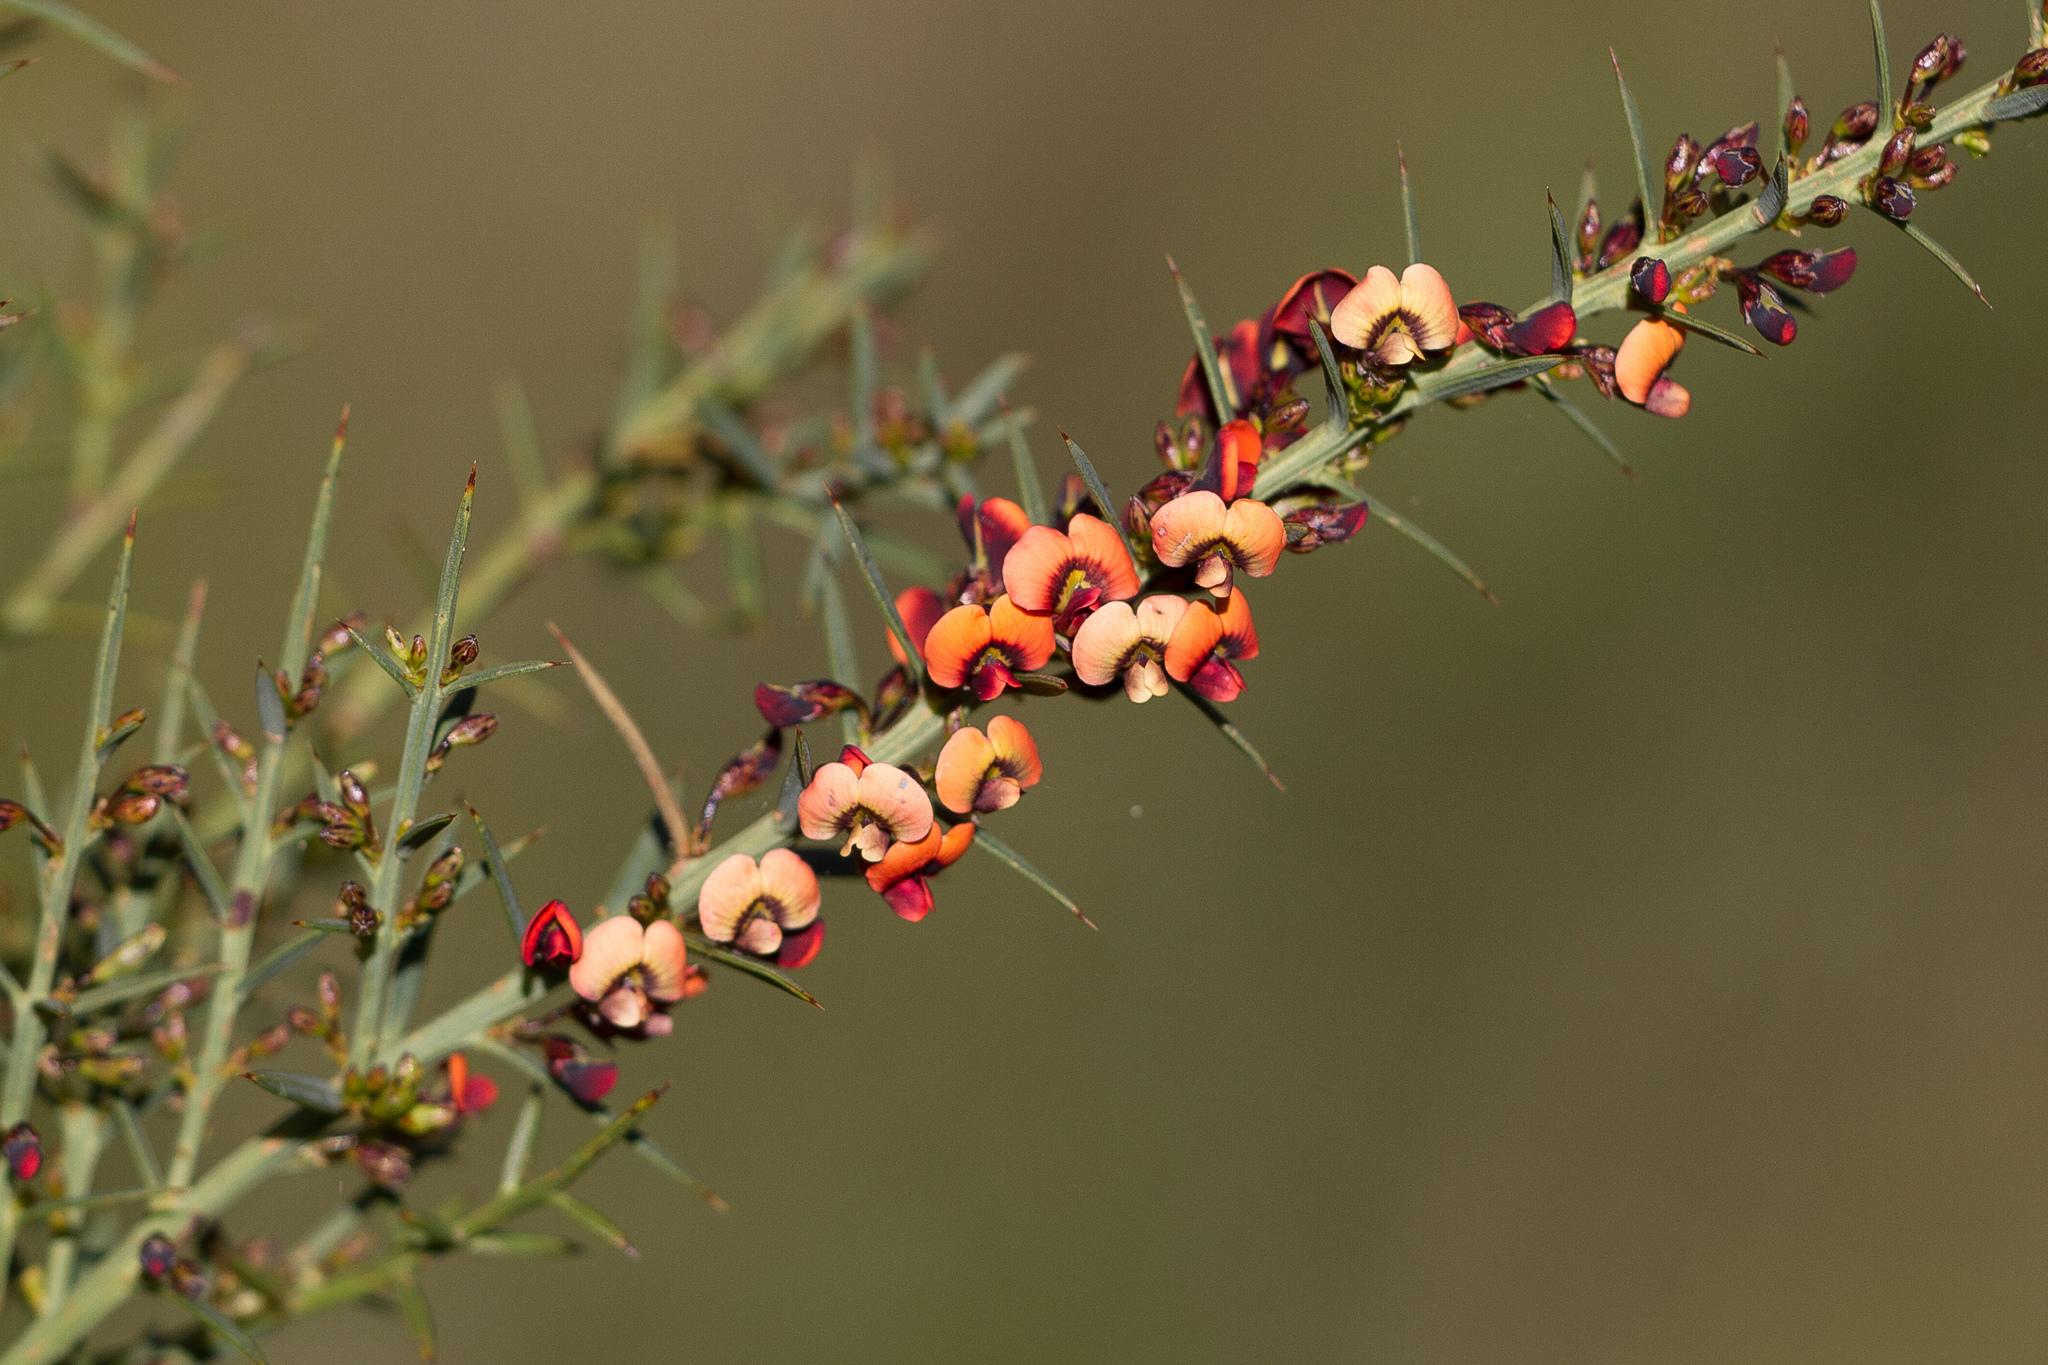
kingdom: Plantae
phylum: Tracheophyta
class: Magnoliopsida
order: Fabales
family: Fabaceae
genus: Daviesia
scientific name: Daviesia ulicifolia
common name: Gorse bitter-pea
